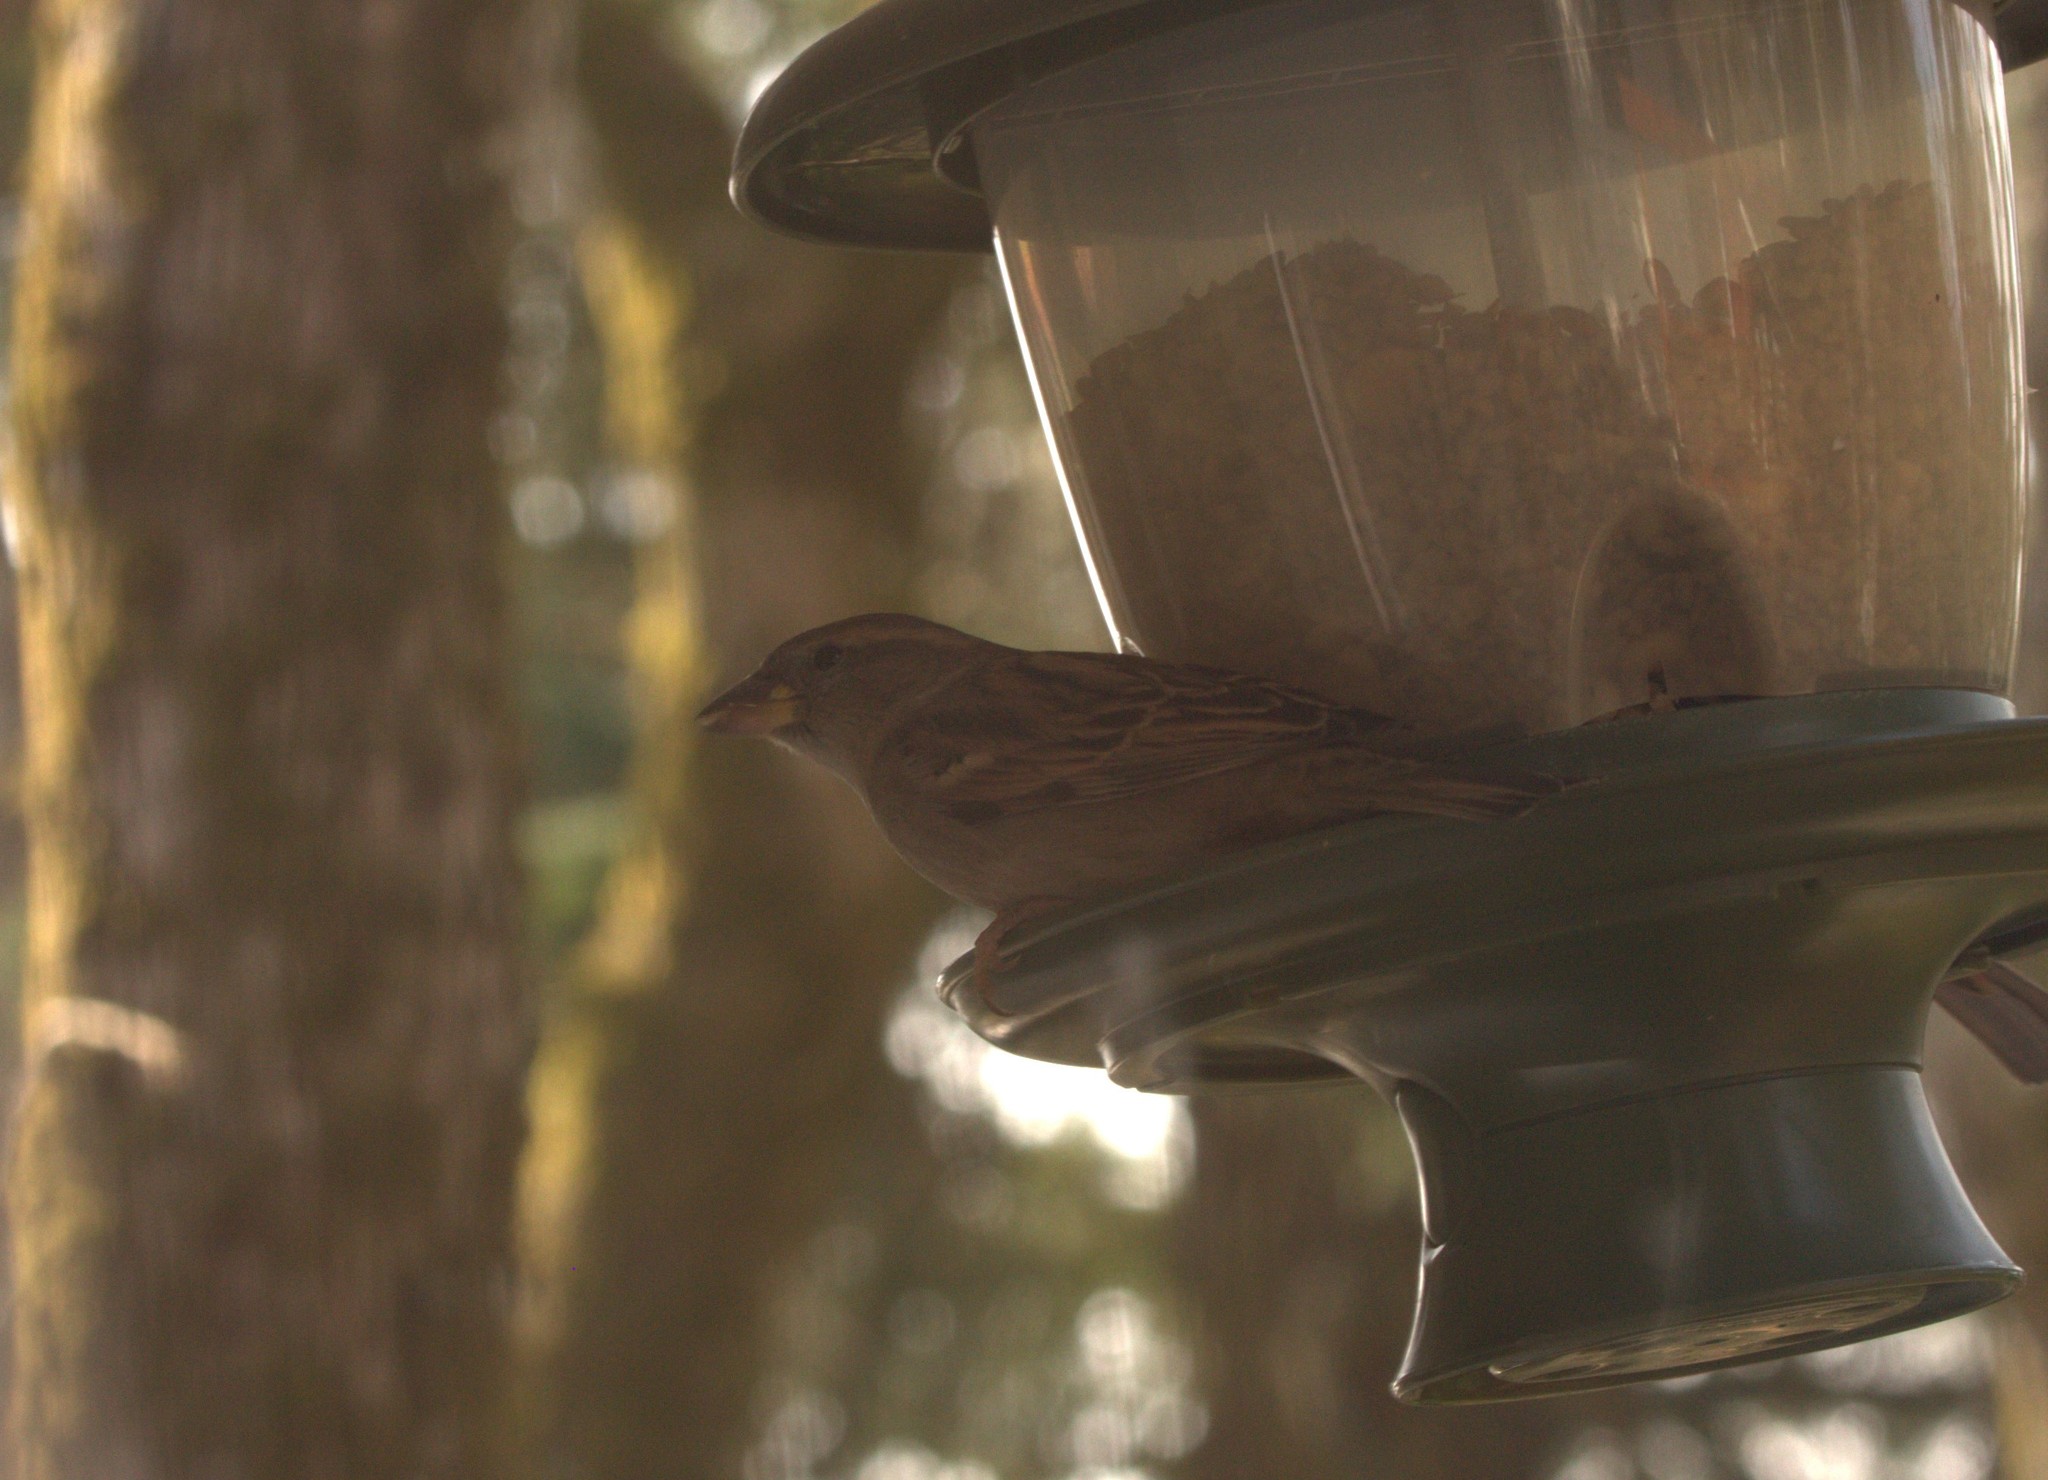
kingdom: Animalia
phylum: Chordata
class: Aves
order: Passeriformes
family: Passeridae
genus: Passer
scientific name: Passer domesticus
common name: House sparrow
